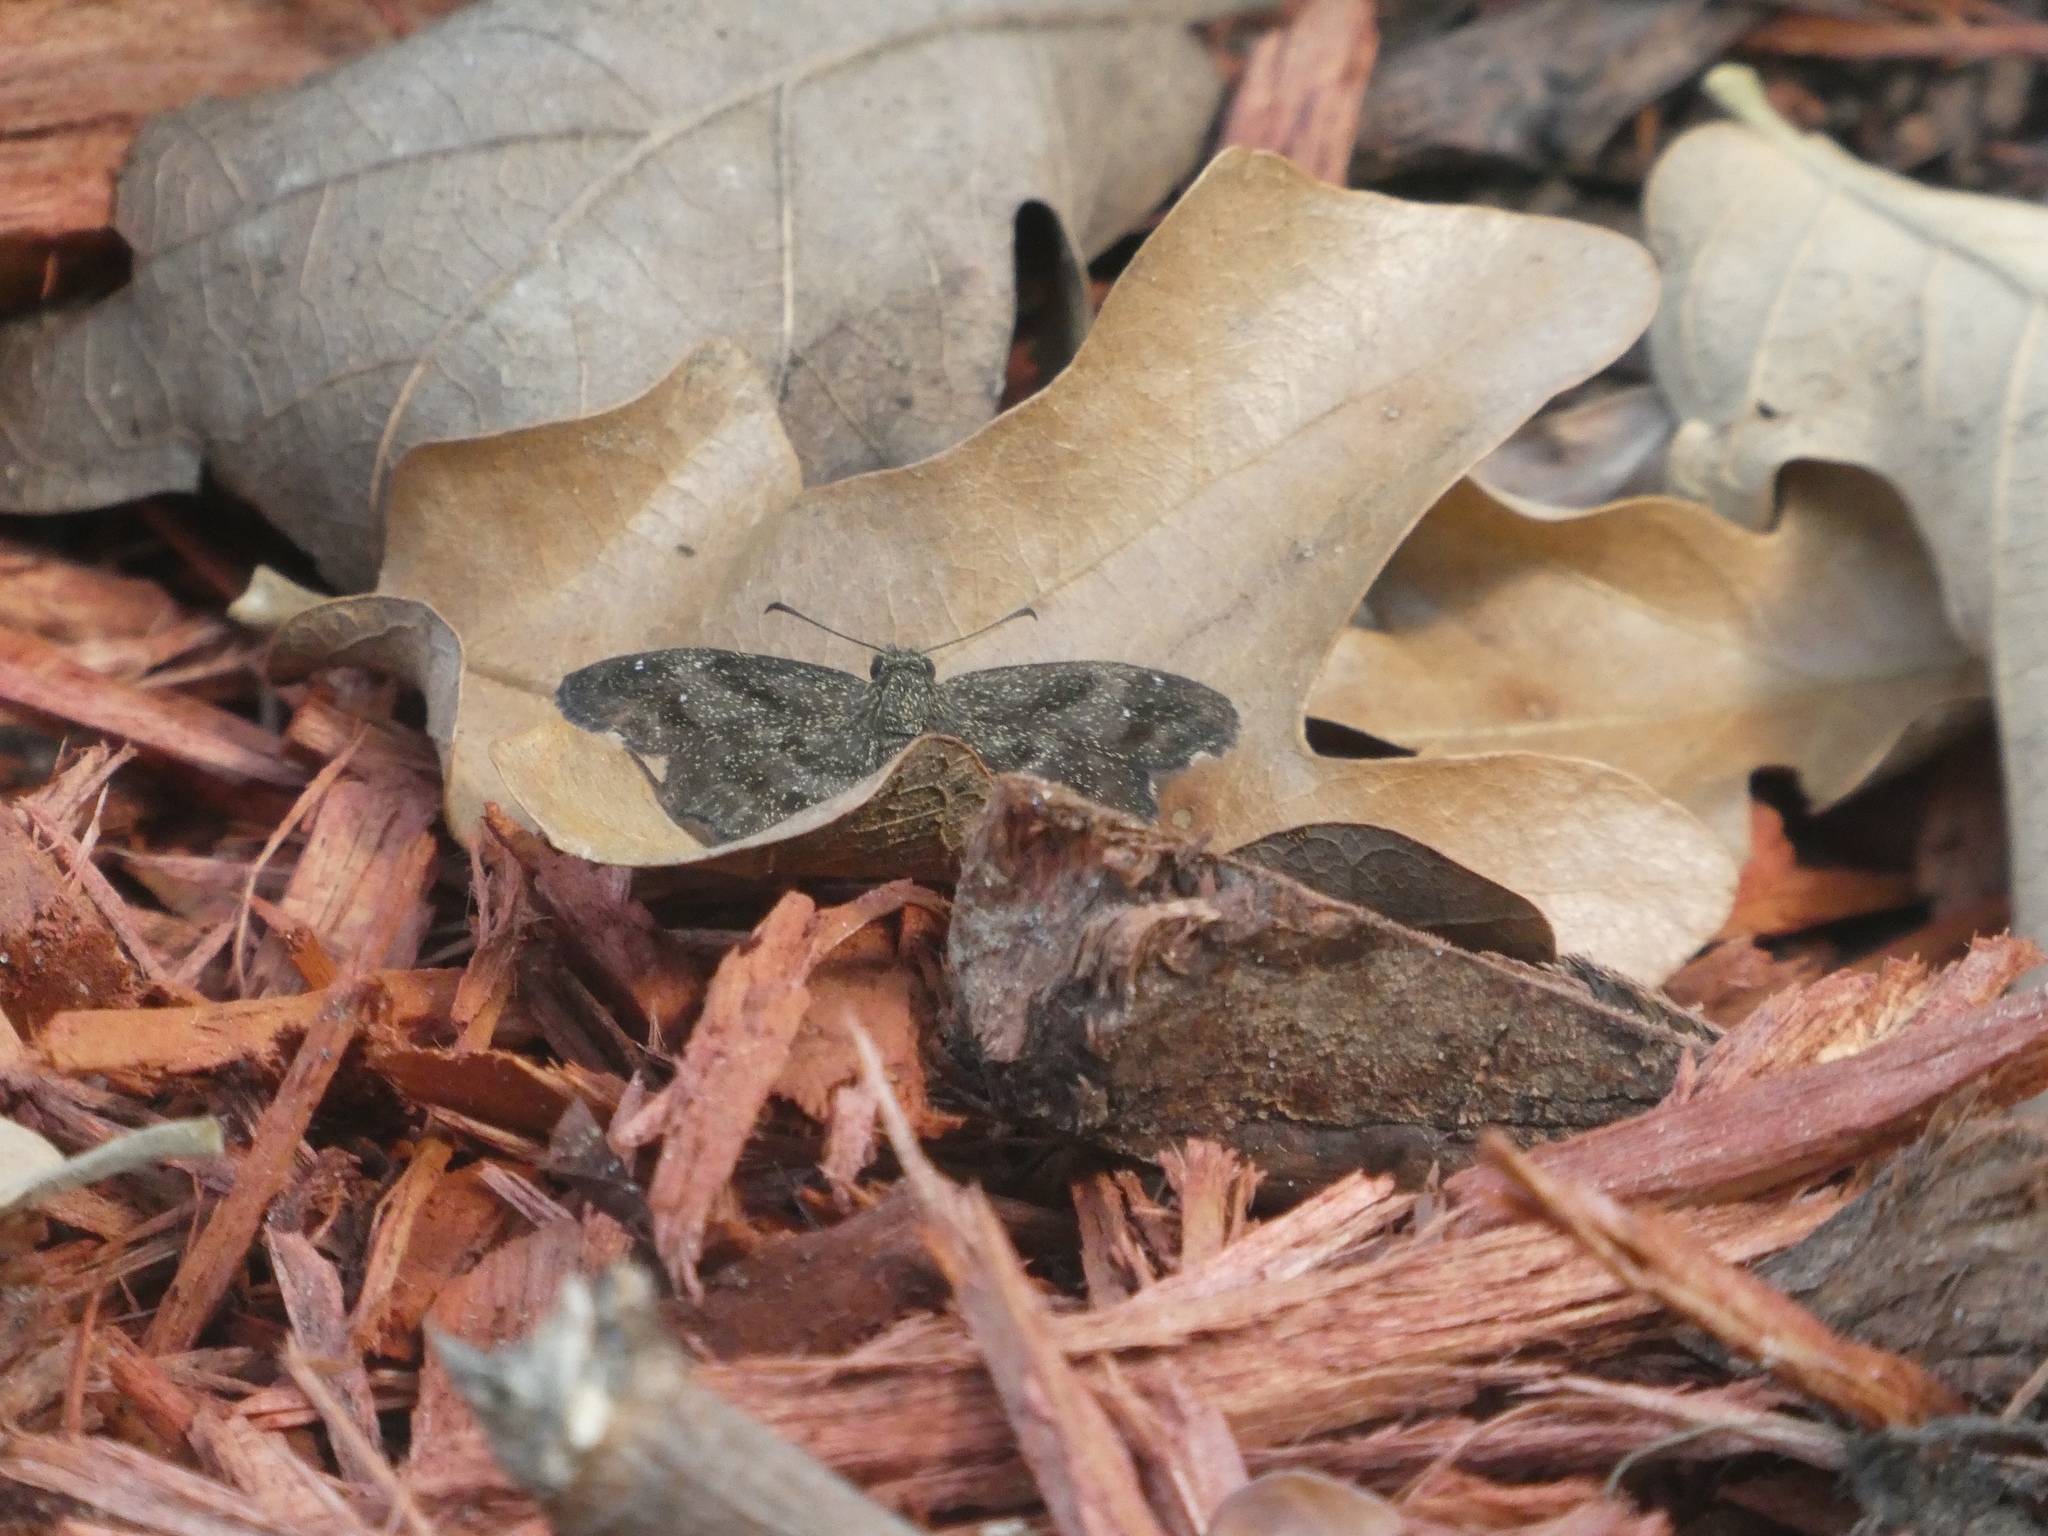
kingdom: Animalia
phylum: Arthropoda
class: Insecta
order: Lepidoptera
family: Hesperiidae
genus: Staphylus
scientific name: Staphylus mazans
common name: Mazans scallopwing
